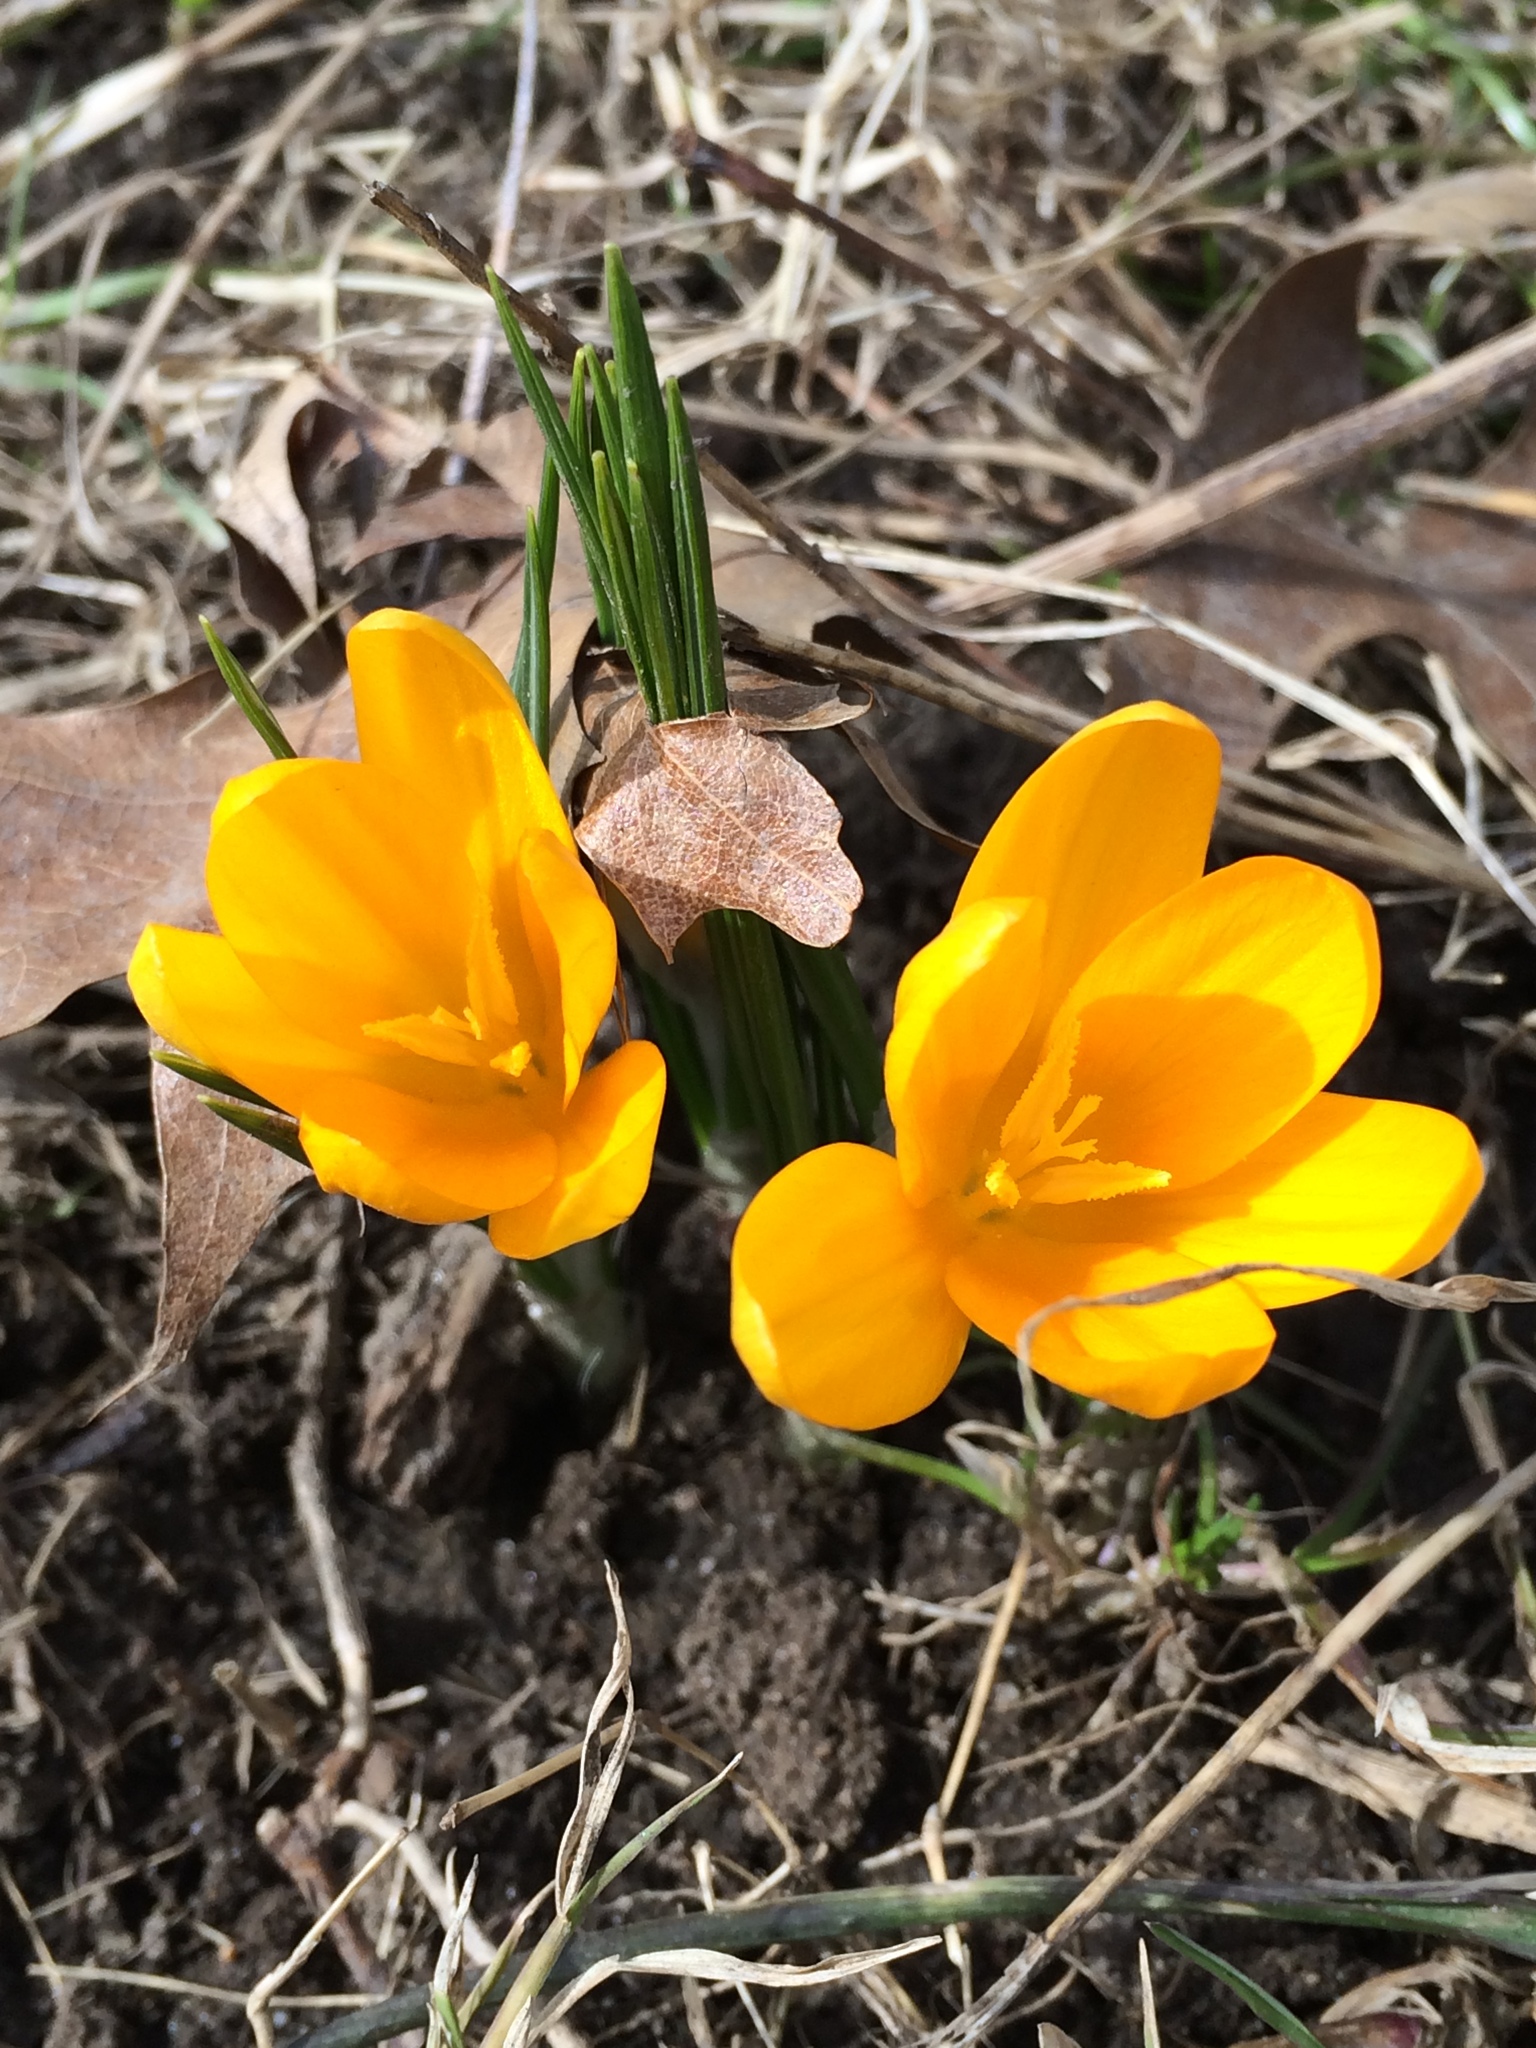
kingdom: Plantae
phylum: Tracheophyta
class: Liliopsida
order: Asparagales
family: Iridaceae
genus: Crocus
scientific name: Crocus luteus
